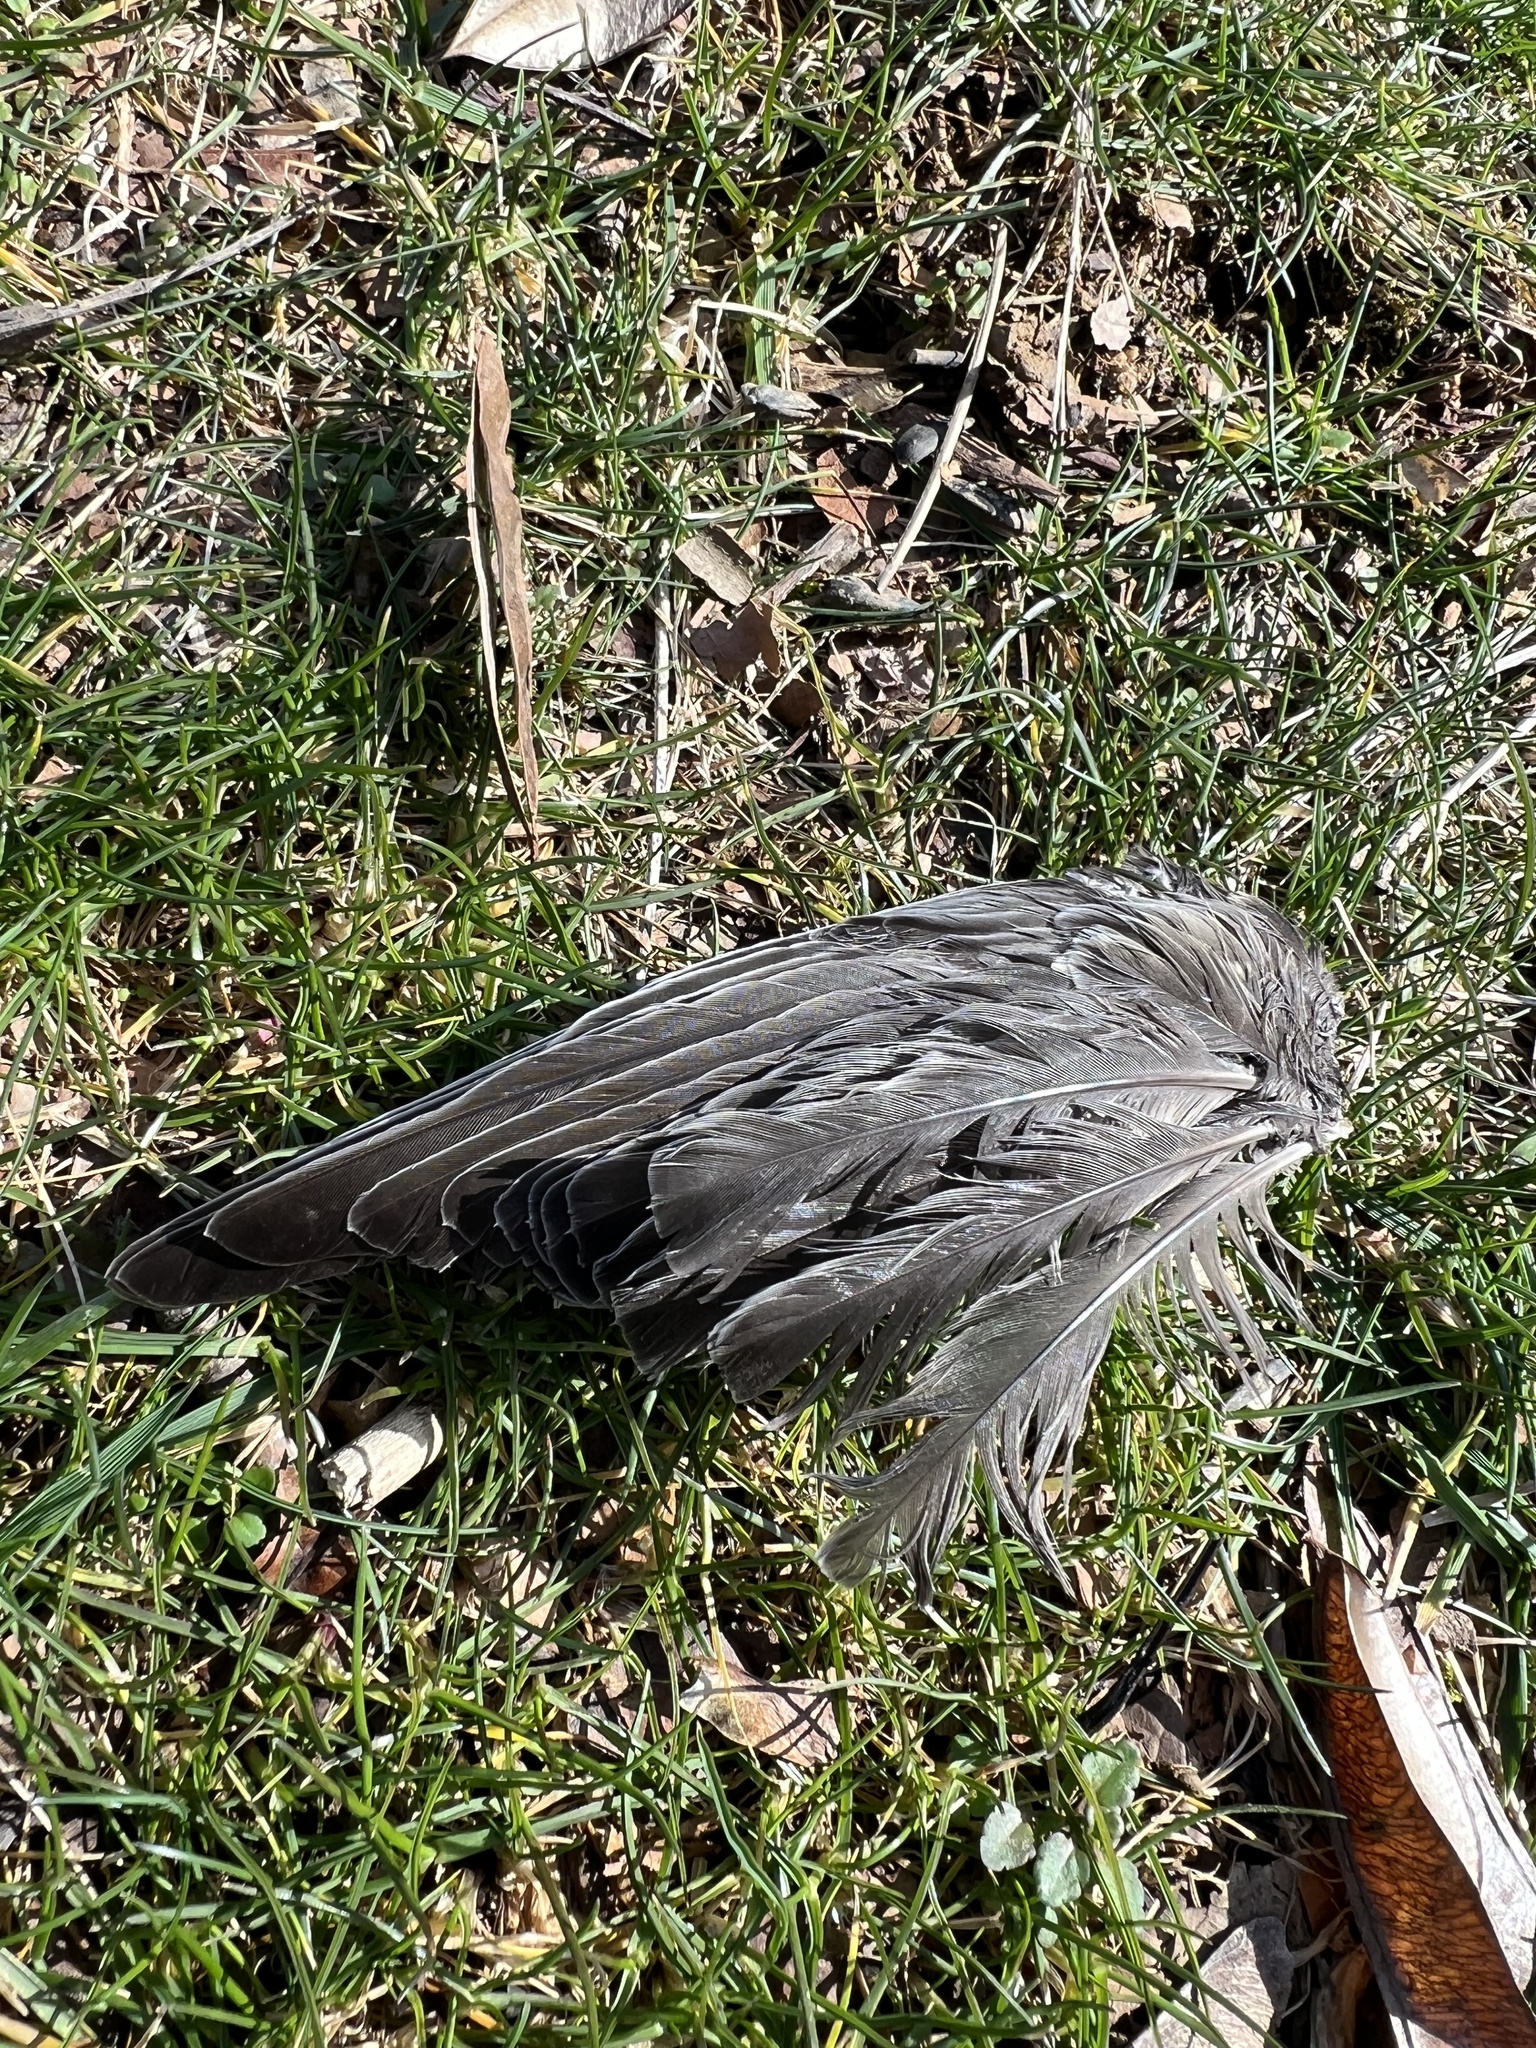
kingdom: Animalia
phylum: Chordata
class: Aves
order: Passeriformes
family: Turdidae
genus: Turdus
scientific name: Turdus migratorius
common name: American robin
